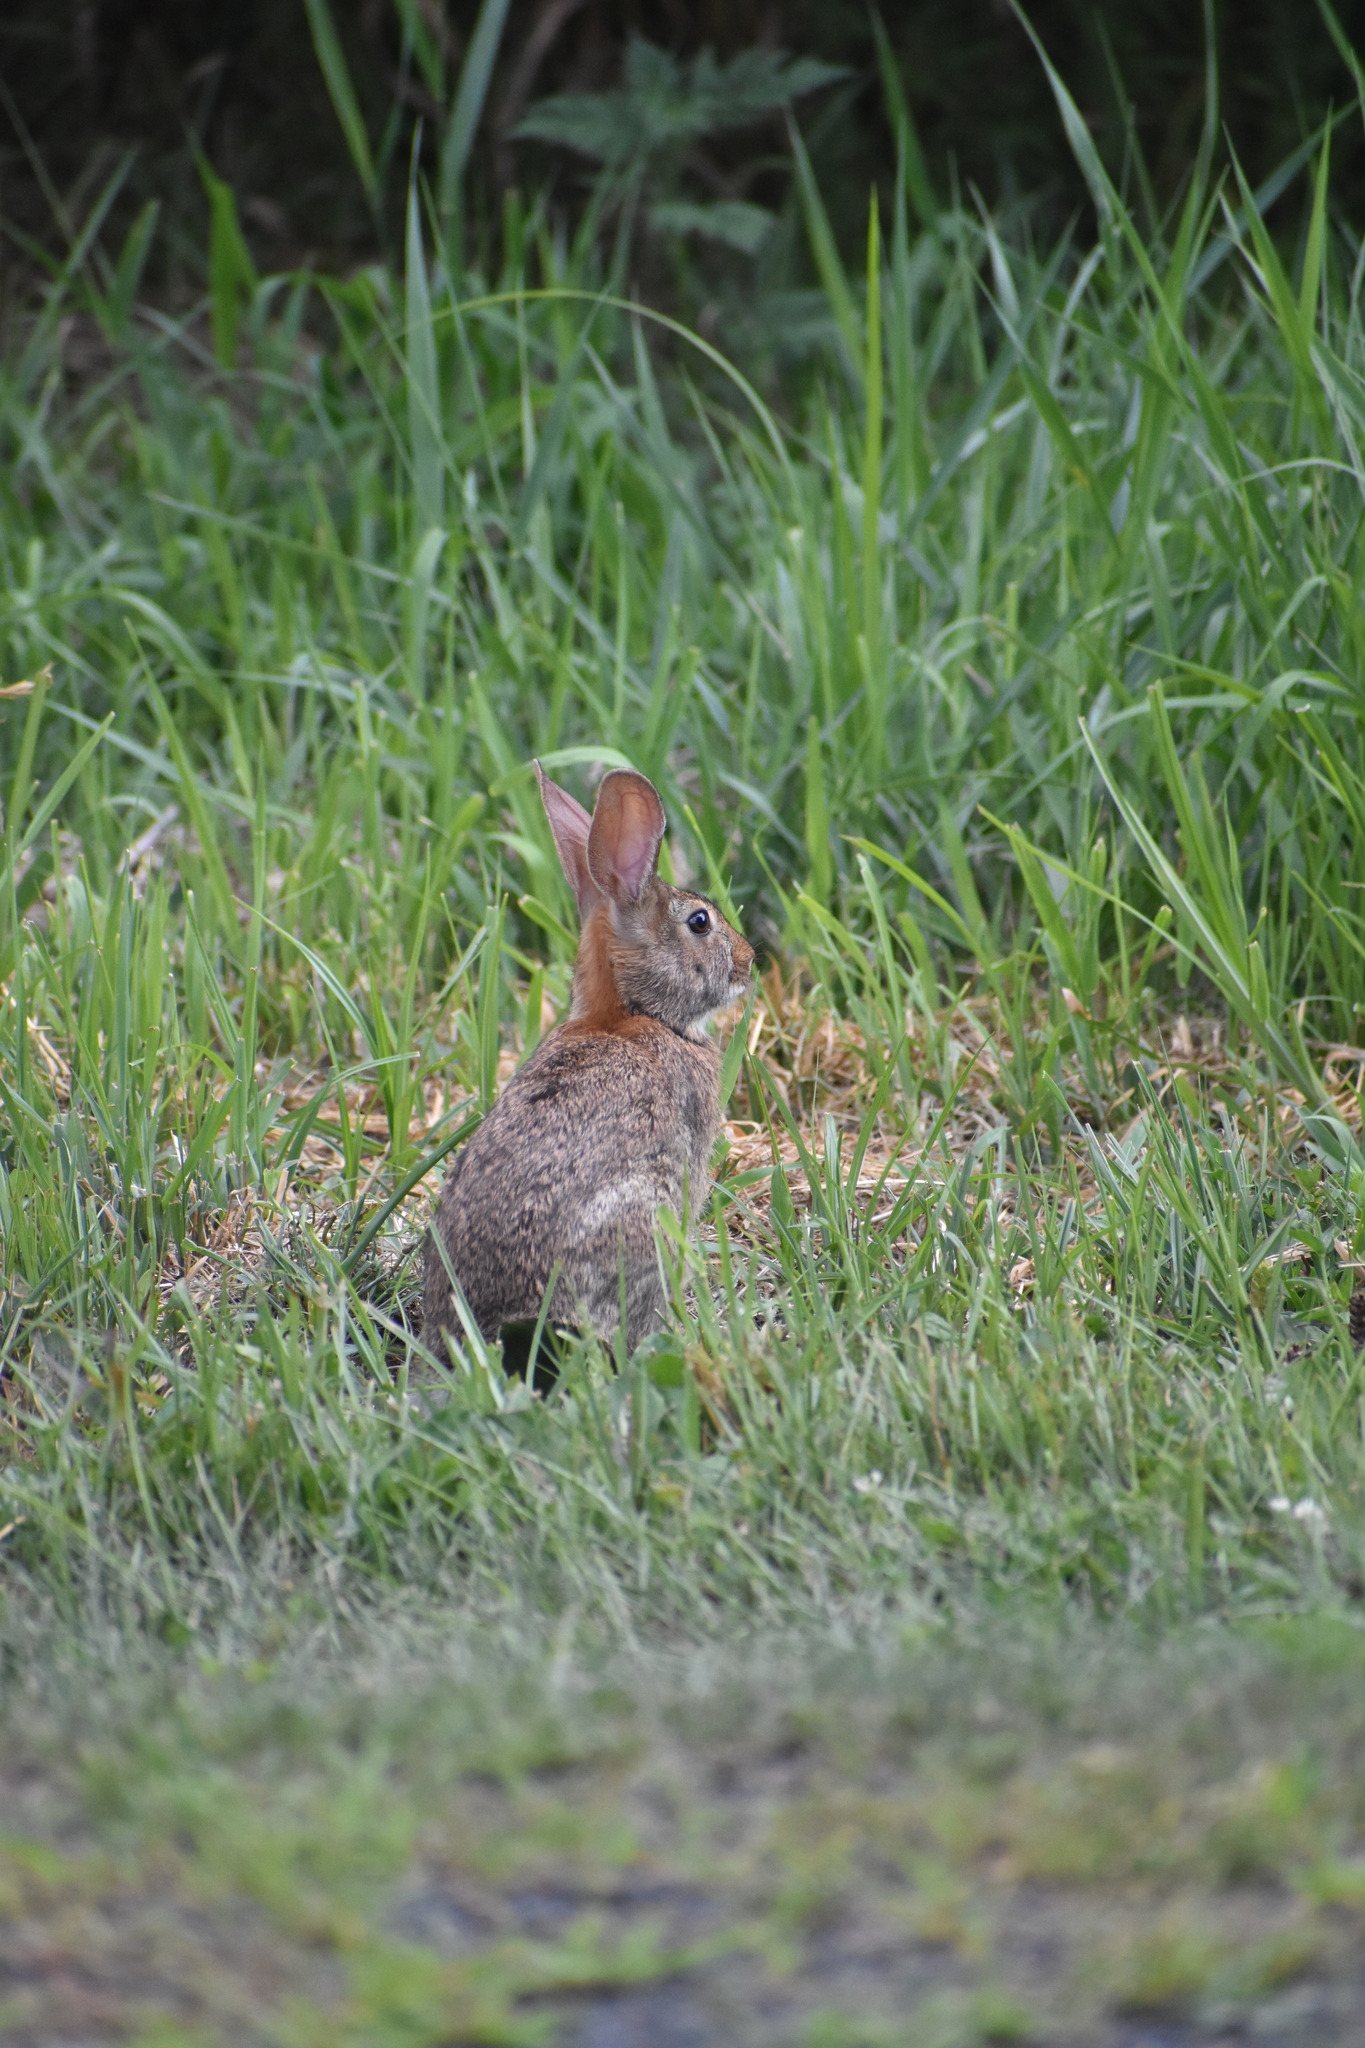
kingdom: Animalia
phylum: Chordata
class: Mammalia
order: Lagomorpha
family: Leporidae
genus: Sylvilagus
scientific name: Sylvilagus floridanus
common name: Eastern cottontail
